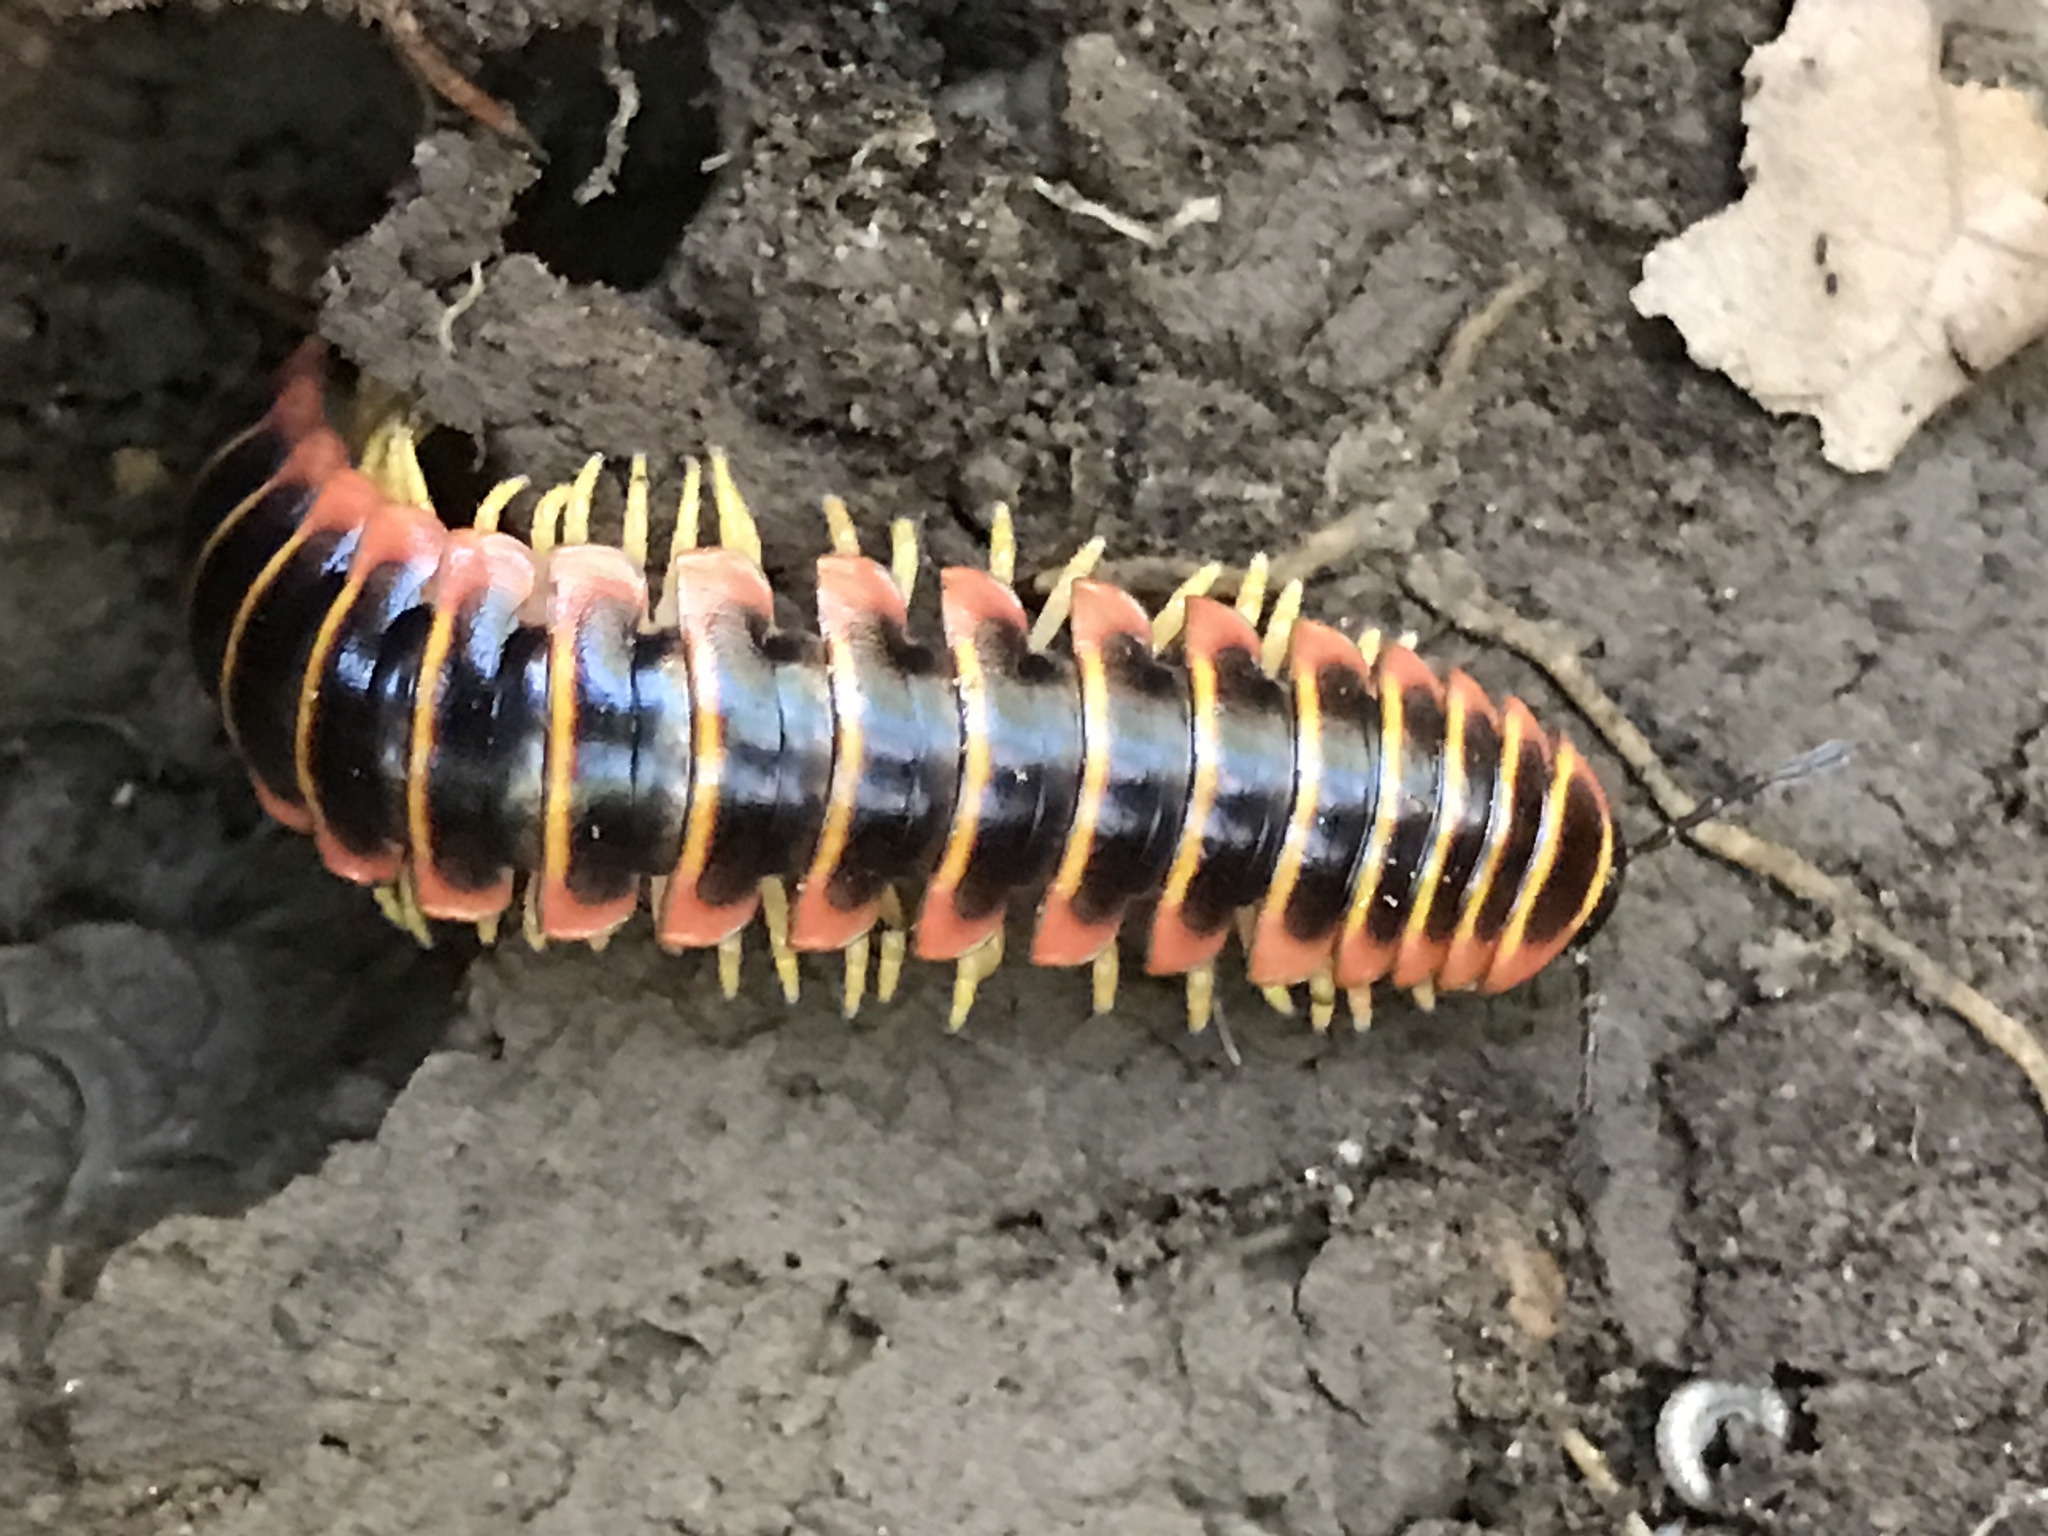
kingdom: Animalia
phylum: Arthropoda
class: Diplopoda
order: Polydesmida
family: Xystodesmidae
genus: Apheloria
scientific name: Apheloria virginiensis
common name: Black-and-gold flat millipede
